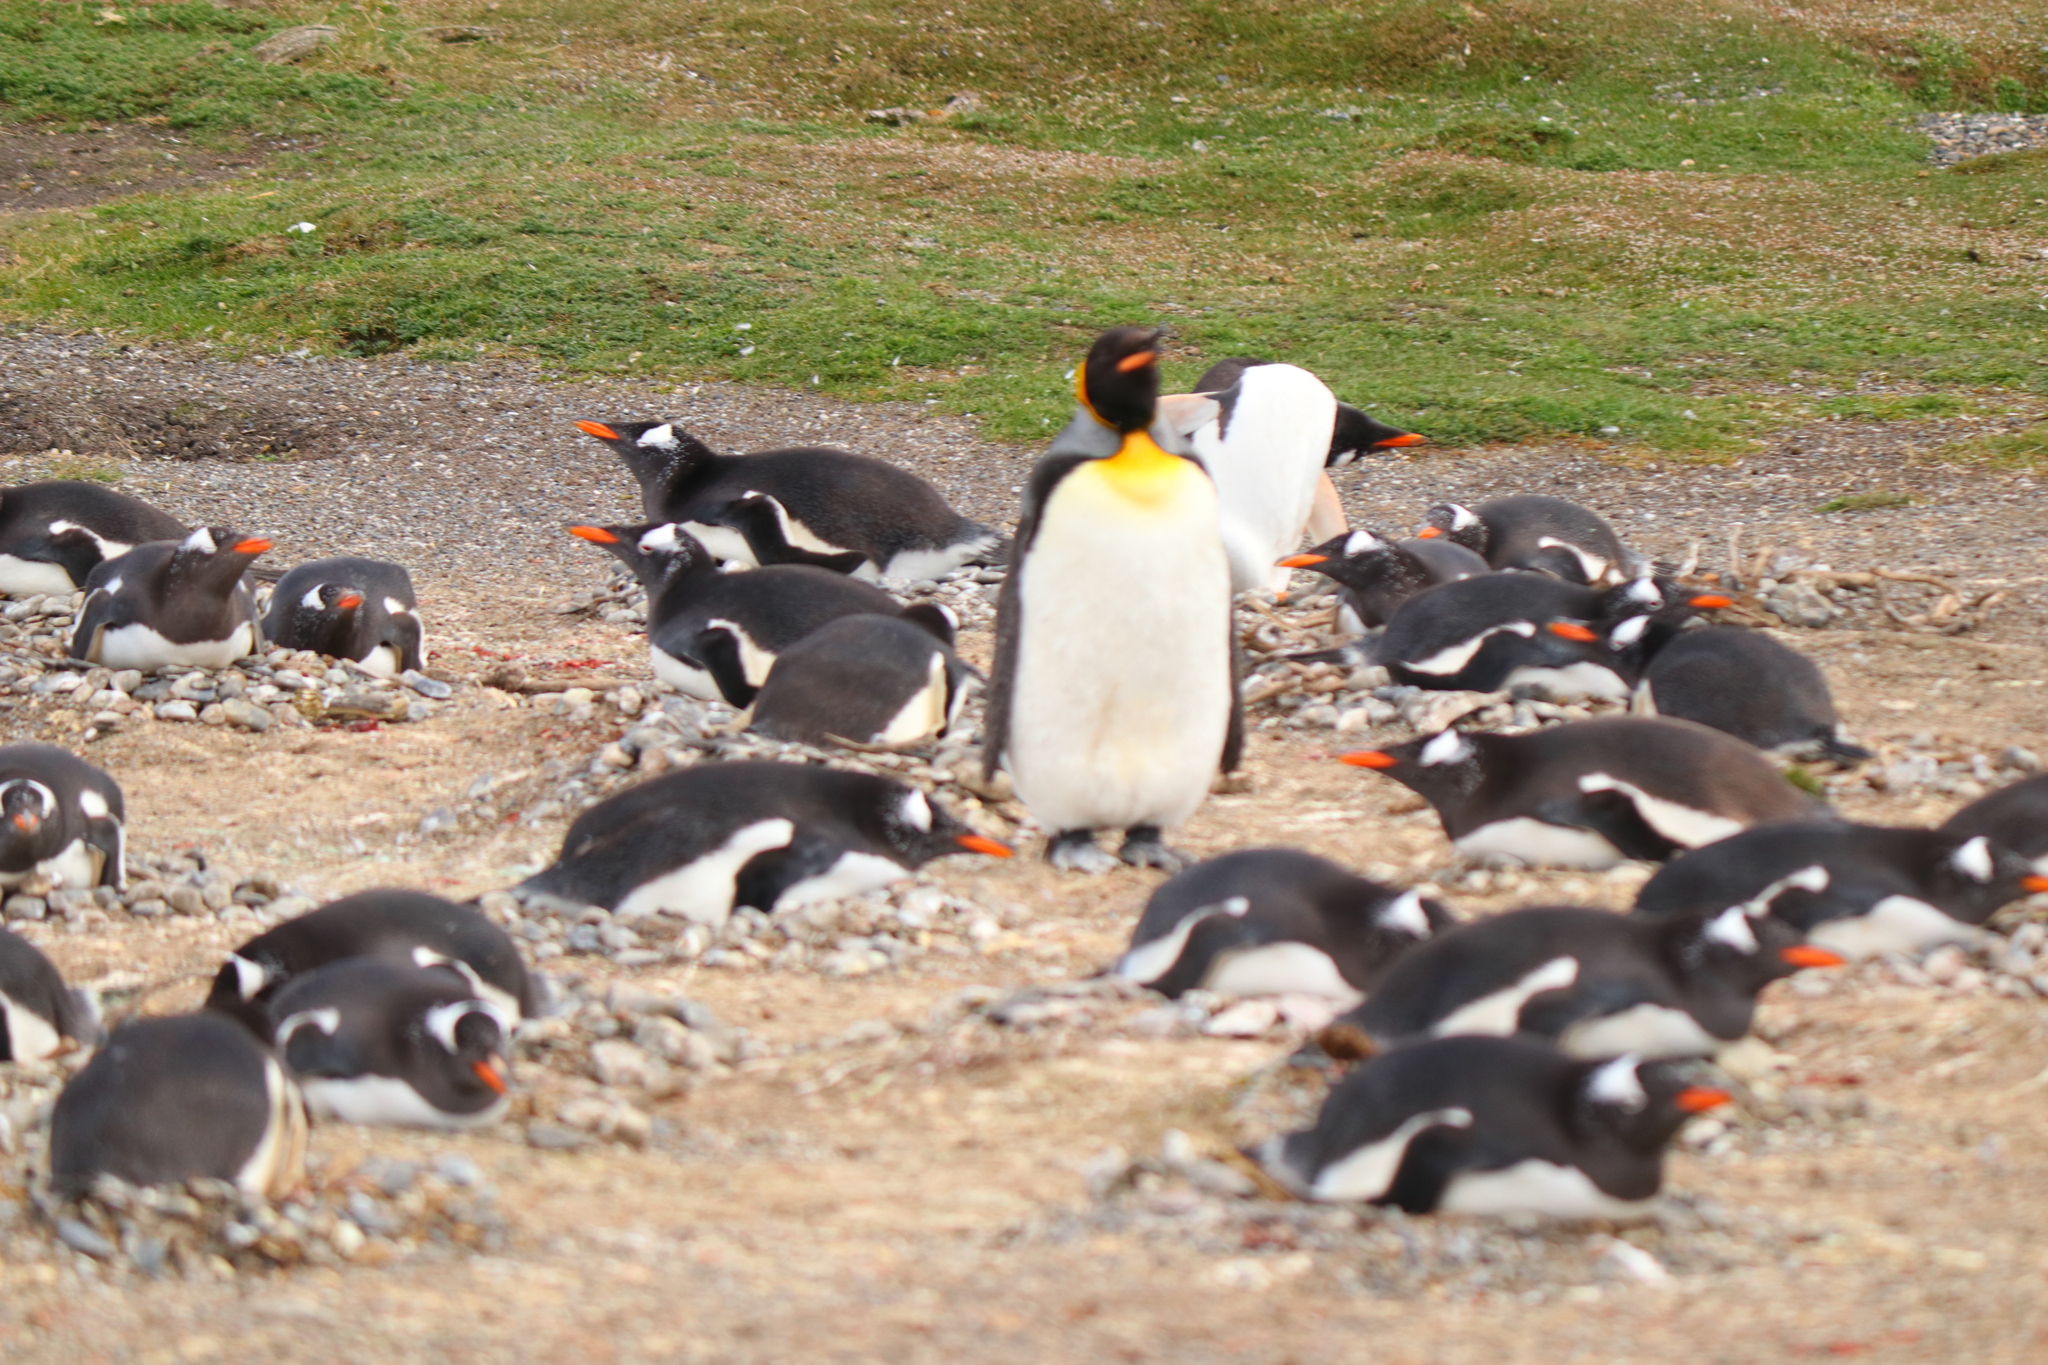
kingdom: Animalia
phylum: Chordata
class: Aves
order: Sphenisciformes
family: Spheniscidae
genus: Aptenodytes
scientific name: Aptenodytes patagonicus
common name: King penguin
